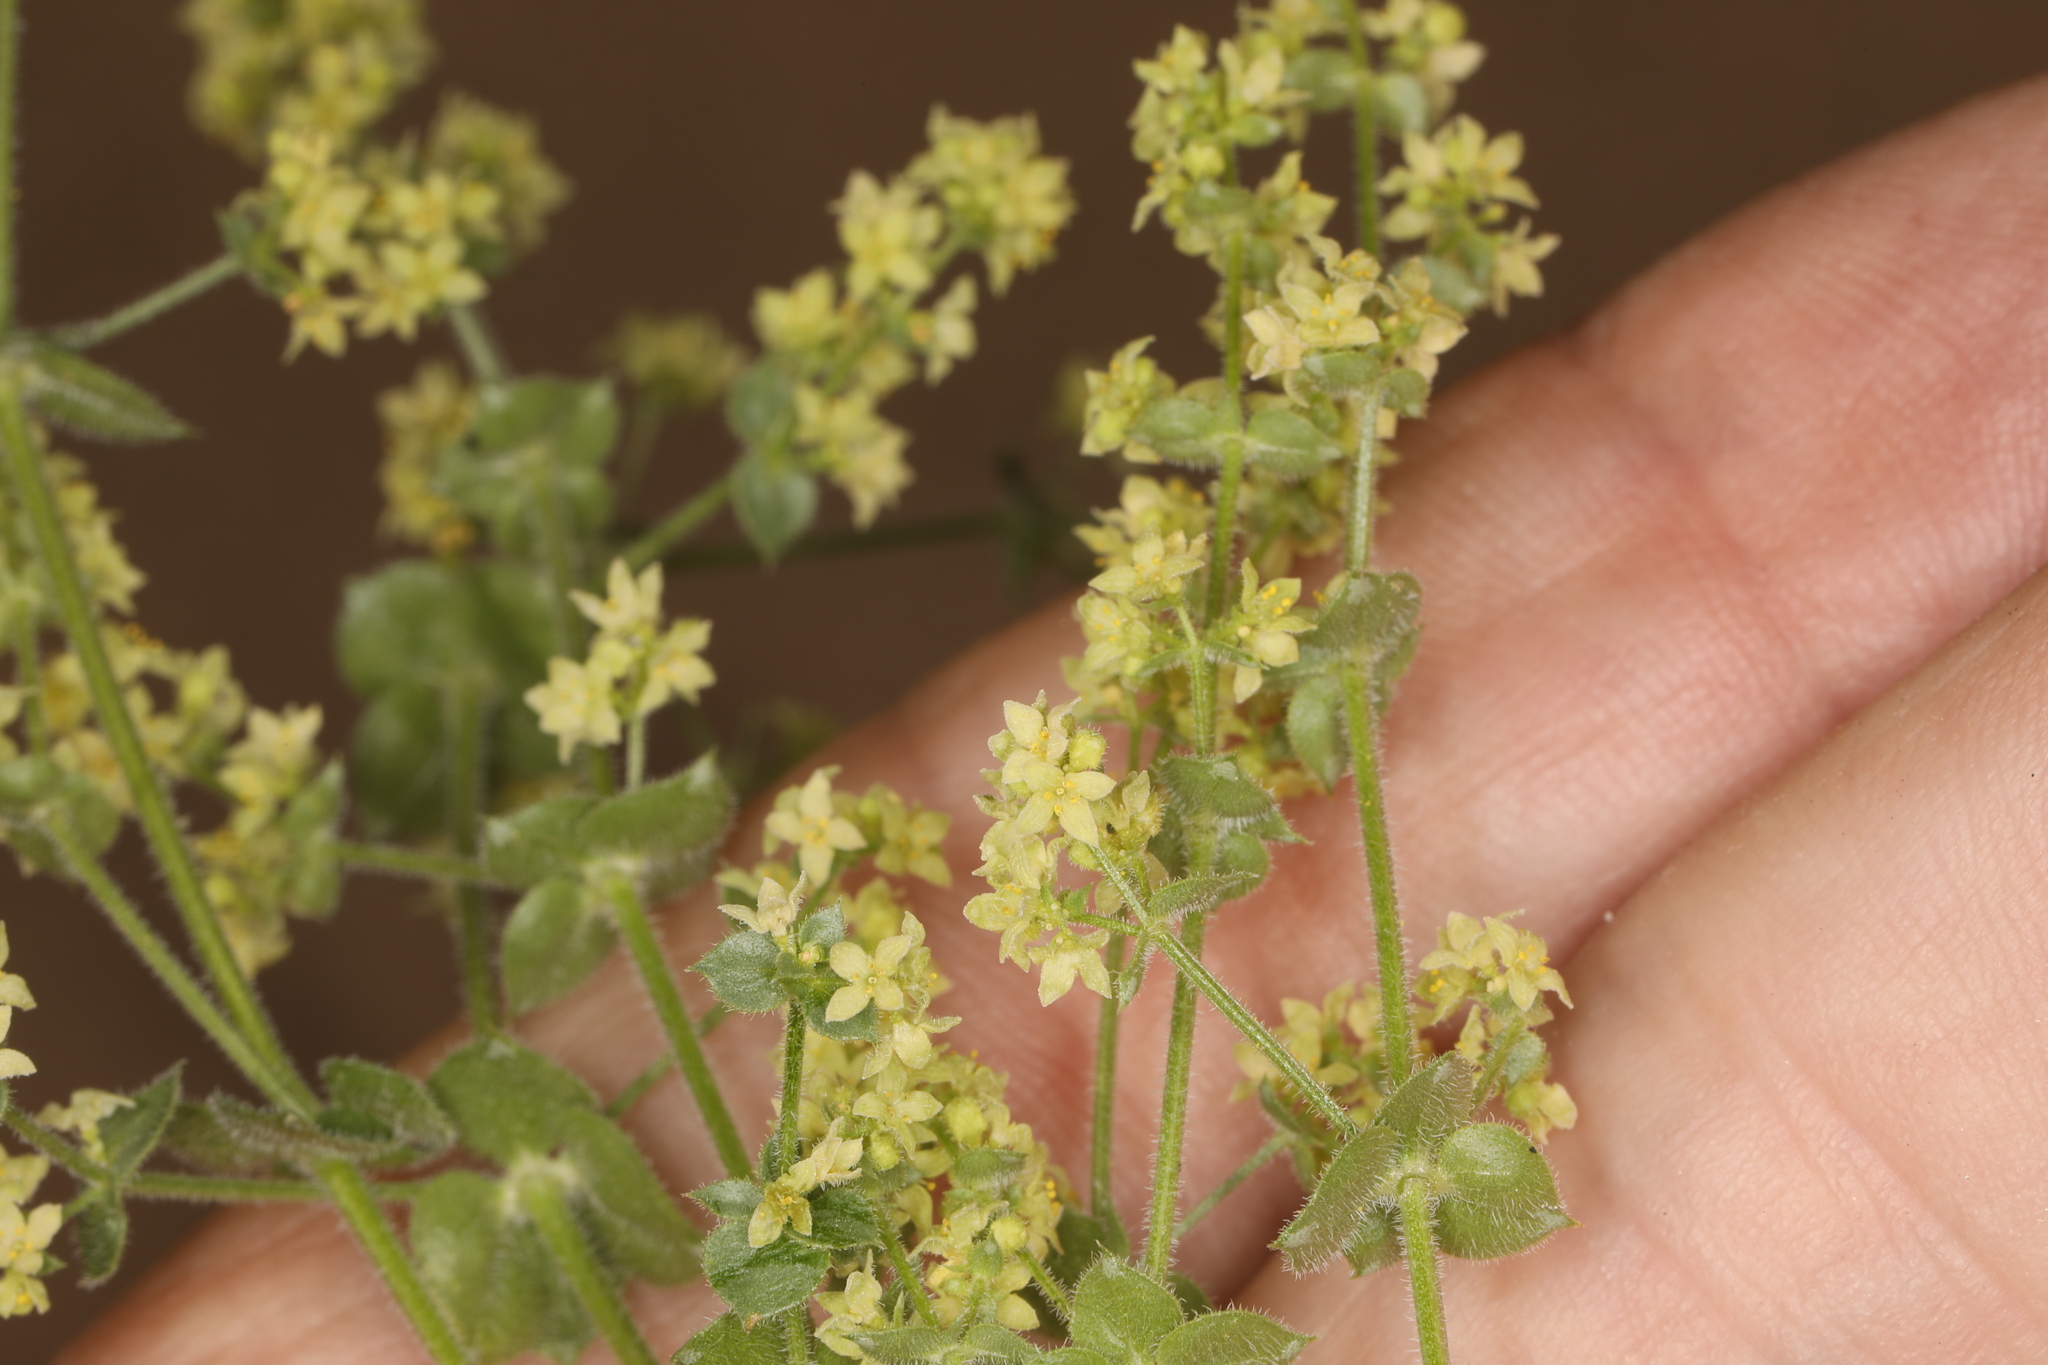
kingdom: Plantae
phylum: Tracheophyta
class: Magnoliopsida
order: Gentianales
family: Rubiaceae
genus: Galium
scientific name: Galium multiflorum
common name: Many-flowered bedstraw
